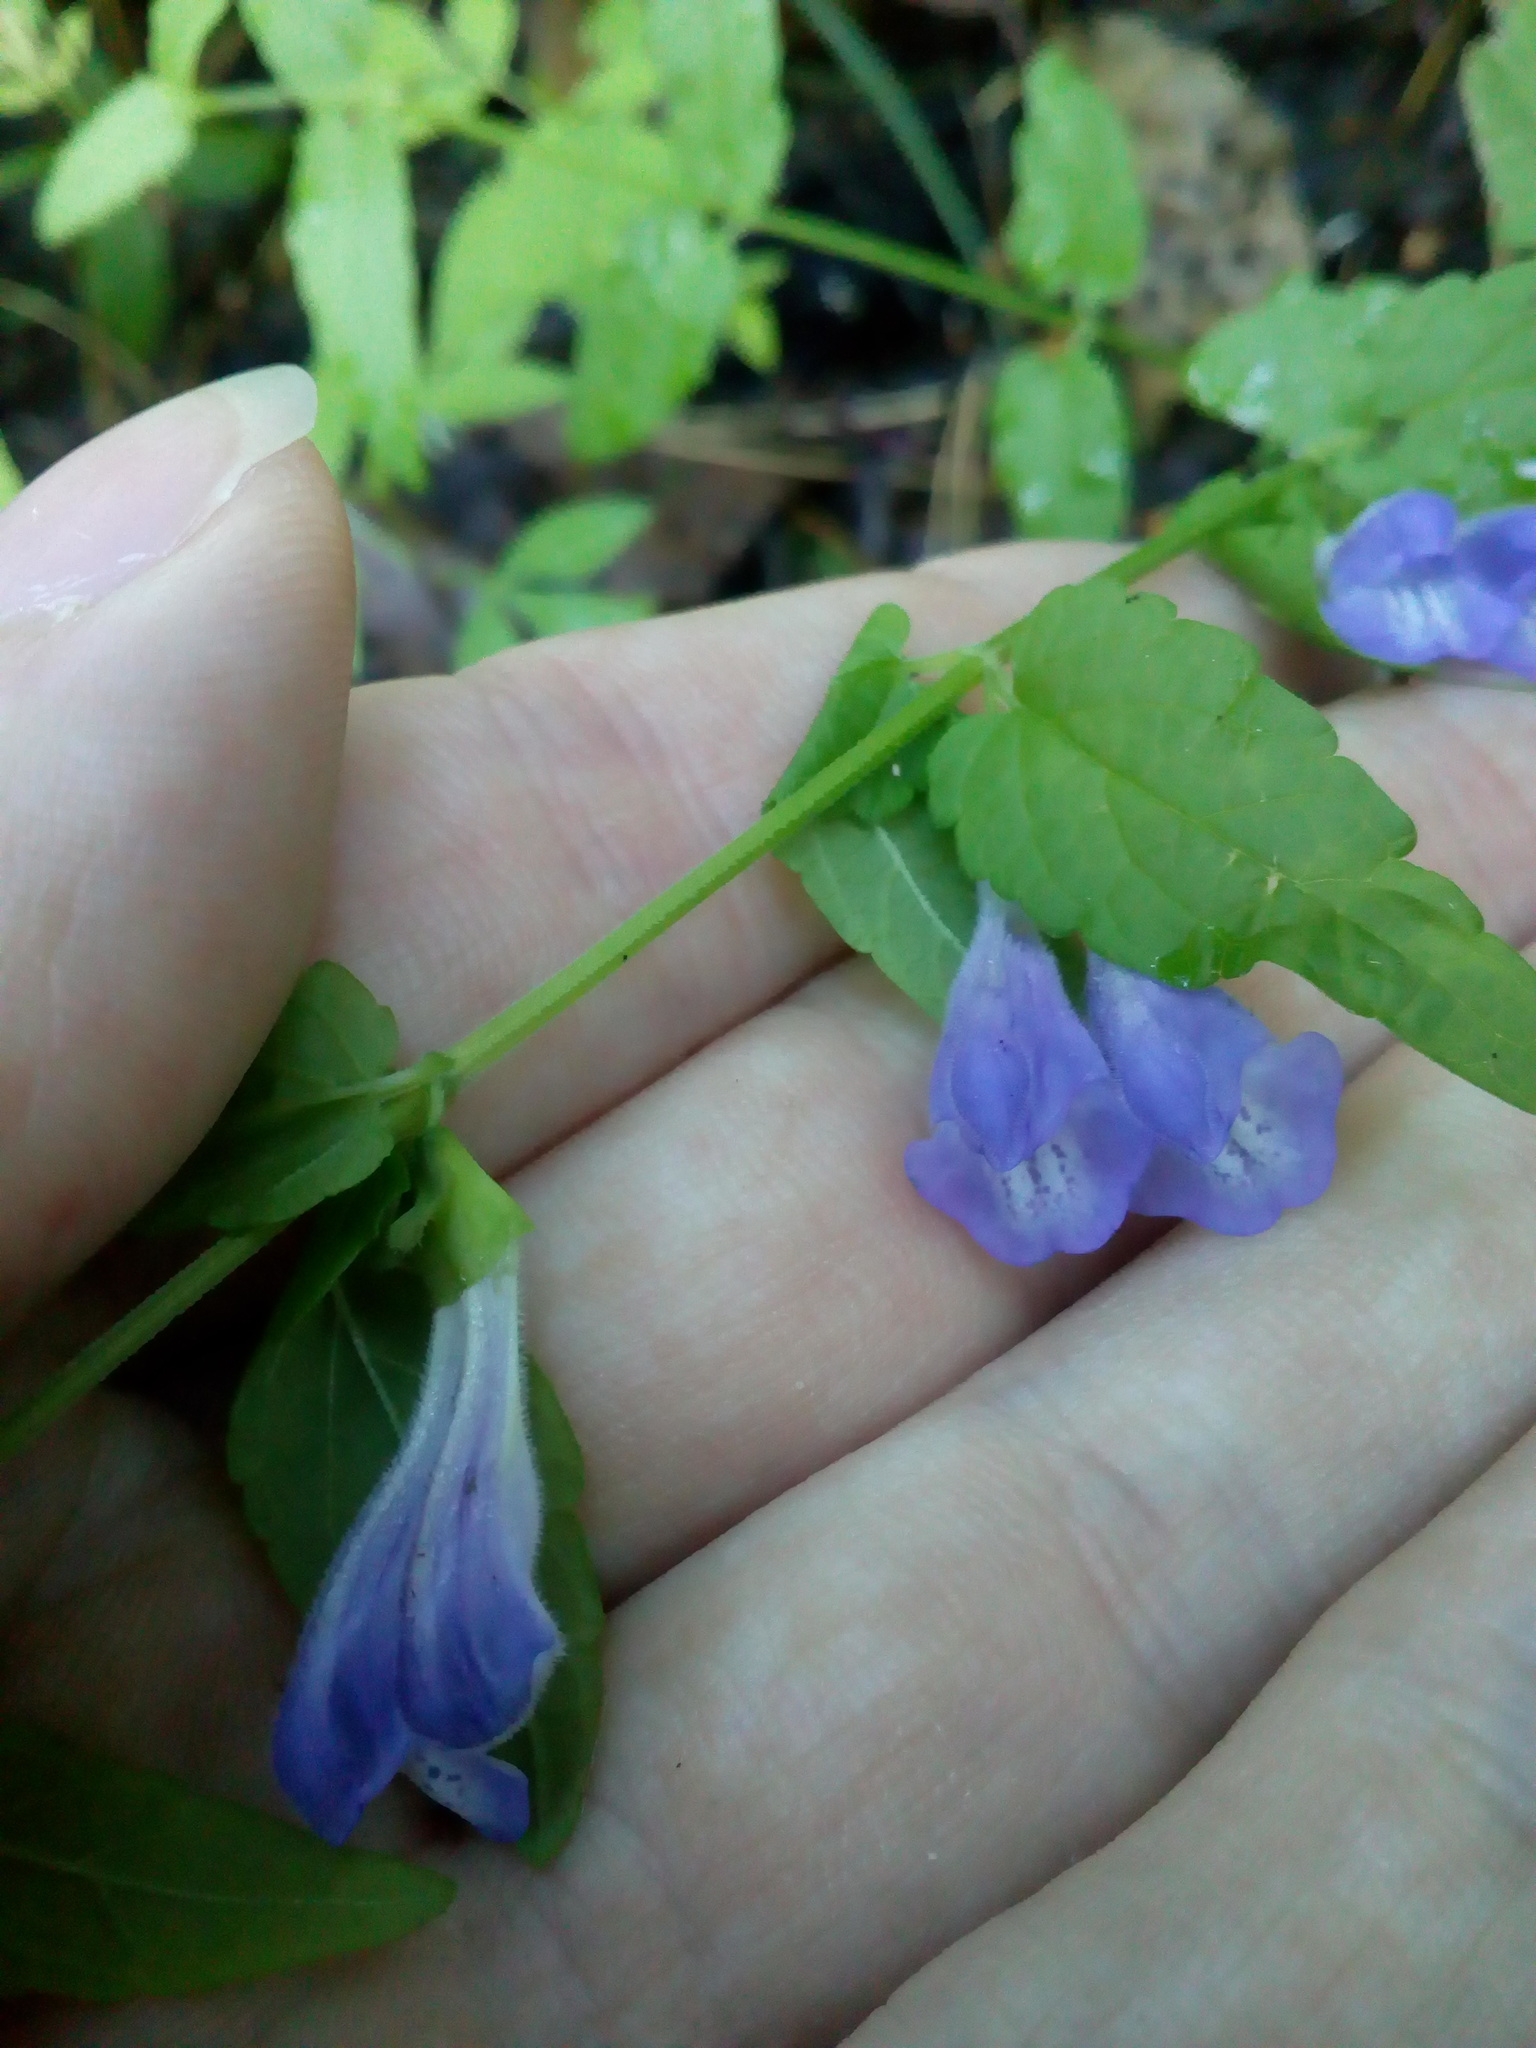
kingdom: Plantae
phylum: Tracheophyta
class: Magnoliopsida
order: Lamiales
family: Lamiaceae
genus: Scutellaria
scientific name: Scutellaria galericulata
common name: Skullcap
